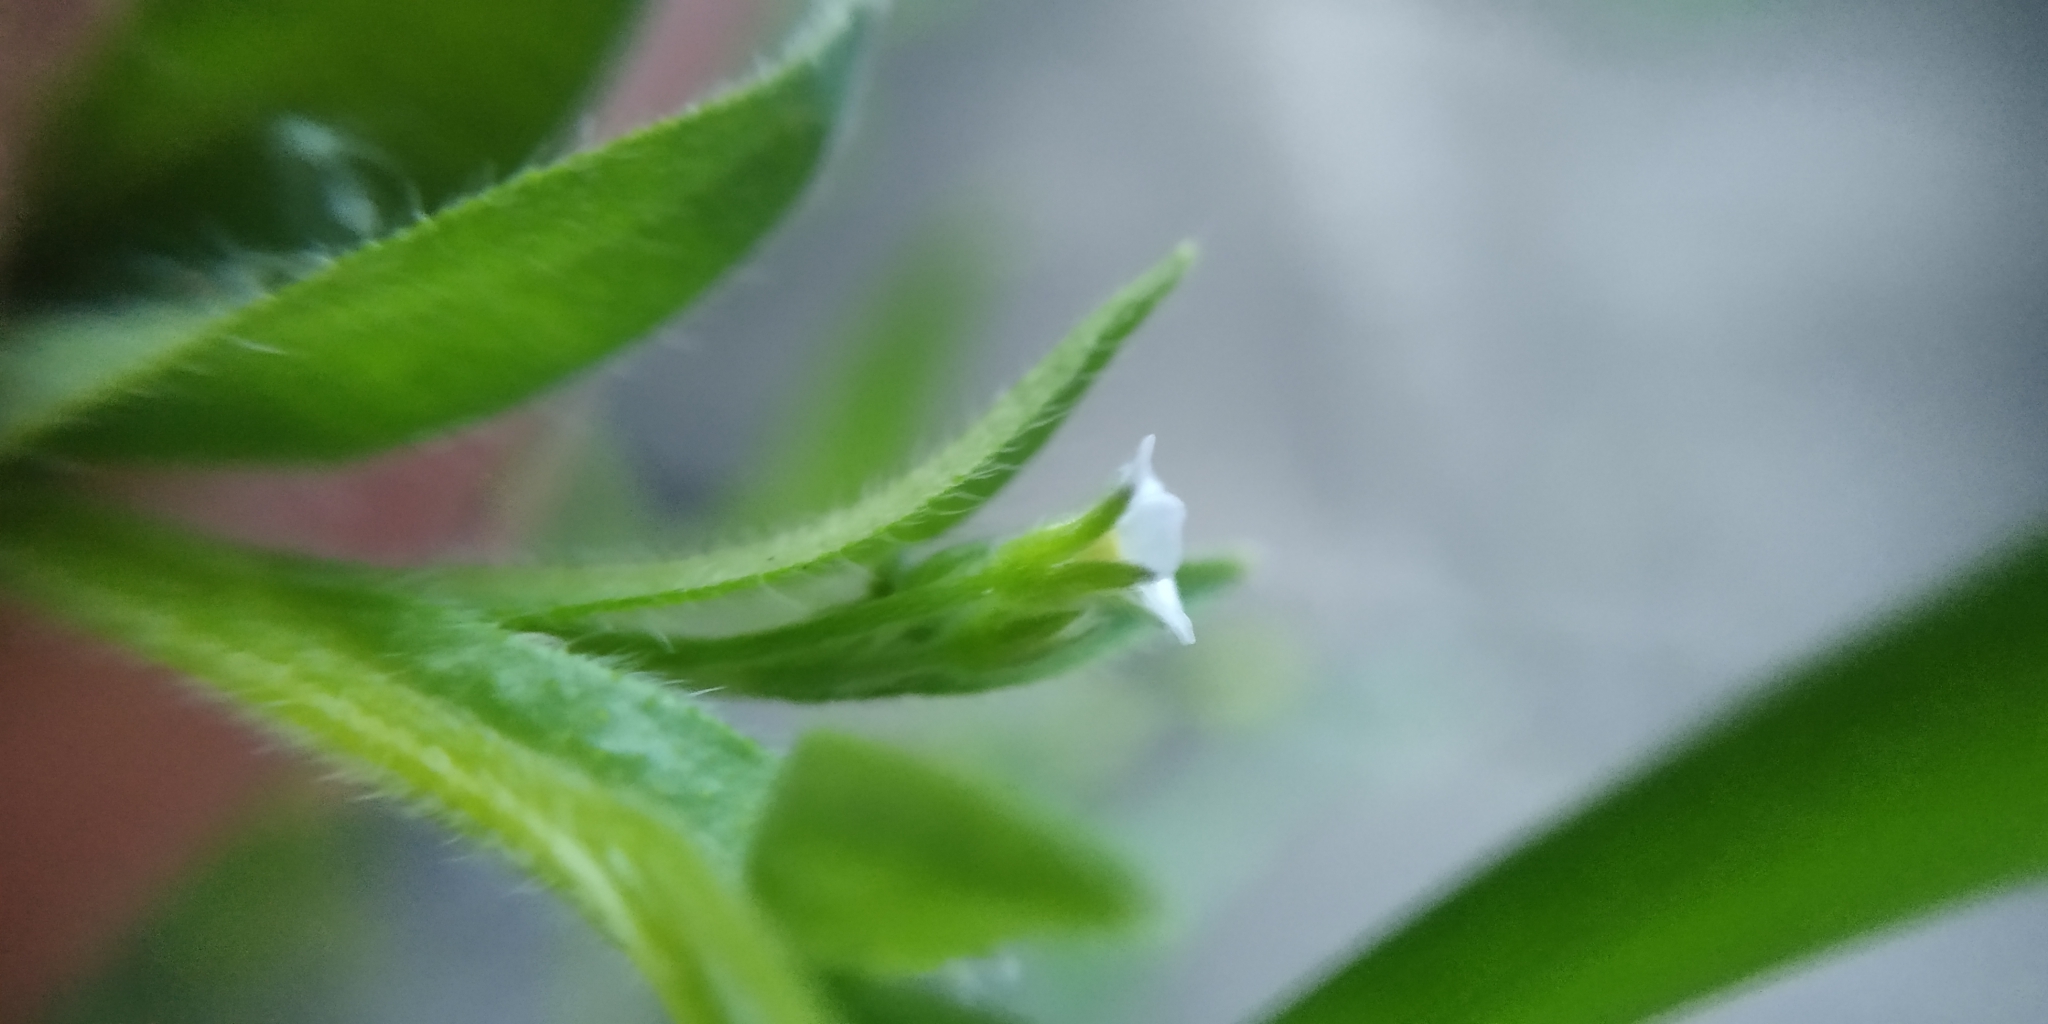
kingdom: Plantae
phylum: Tracheophyta
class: Magnoliopsida
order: Boraginales
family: Boraginaceae
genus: Myosotis
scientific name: Myosotis sparsiflora
